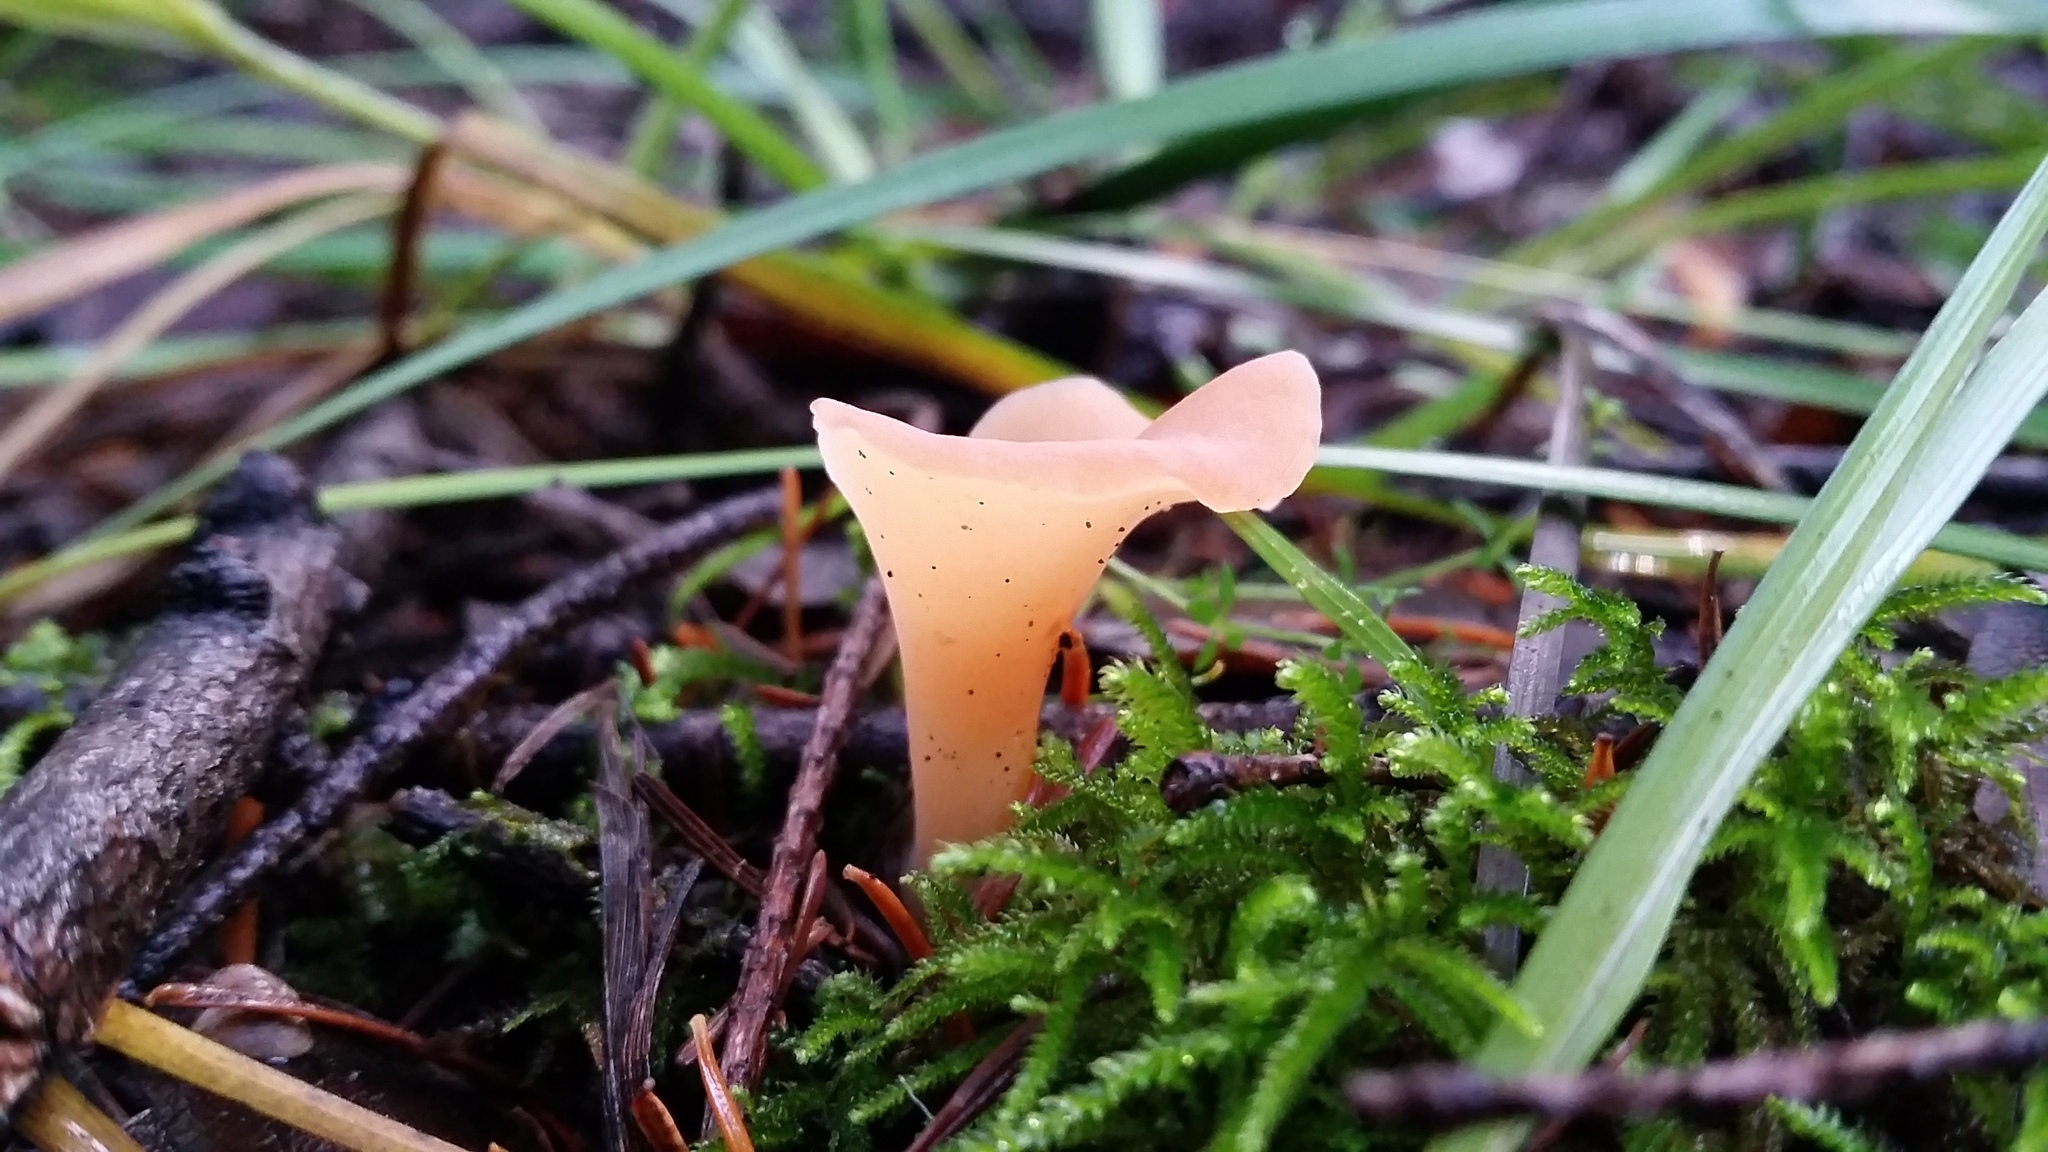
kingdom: Fungi
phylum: Basidiomycota
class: Agaricomycetes
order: Auriculariales
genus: Guepinia
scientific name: Guepinia helvelloides
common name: Salmon salad
